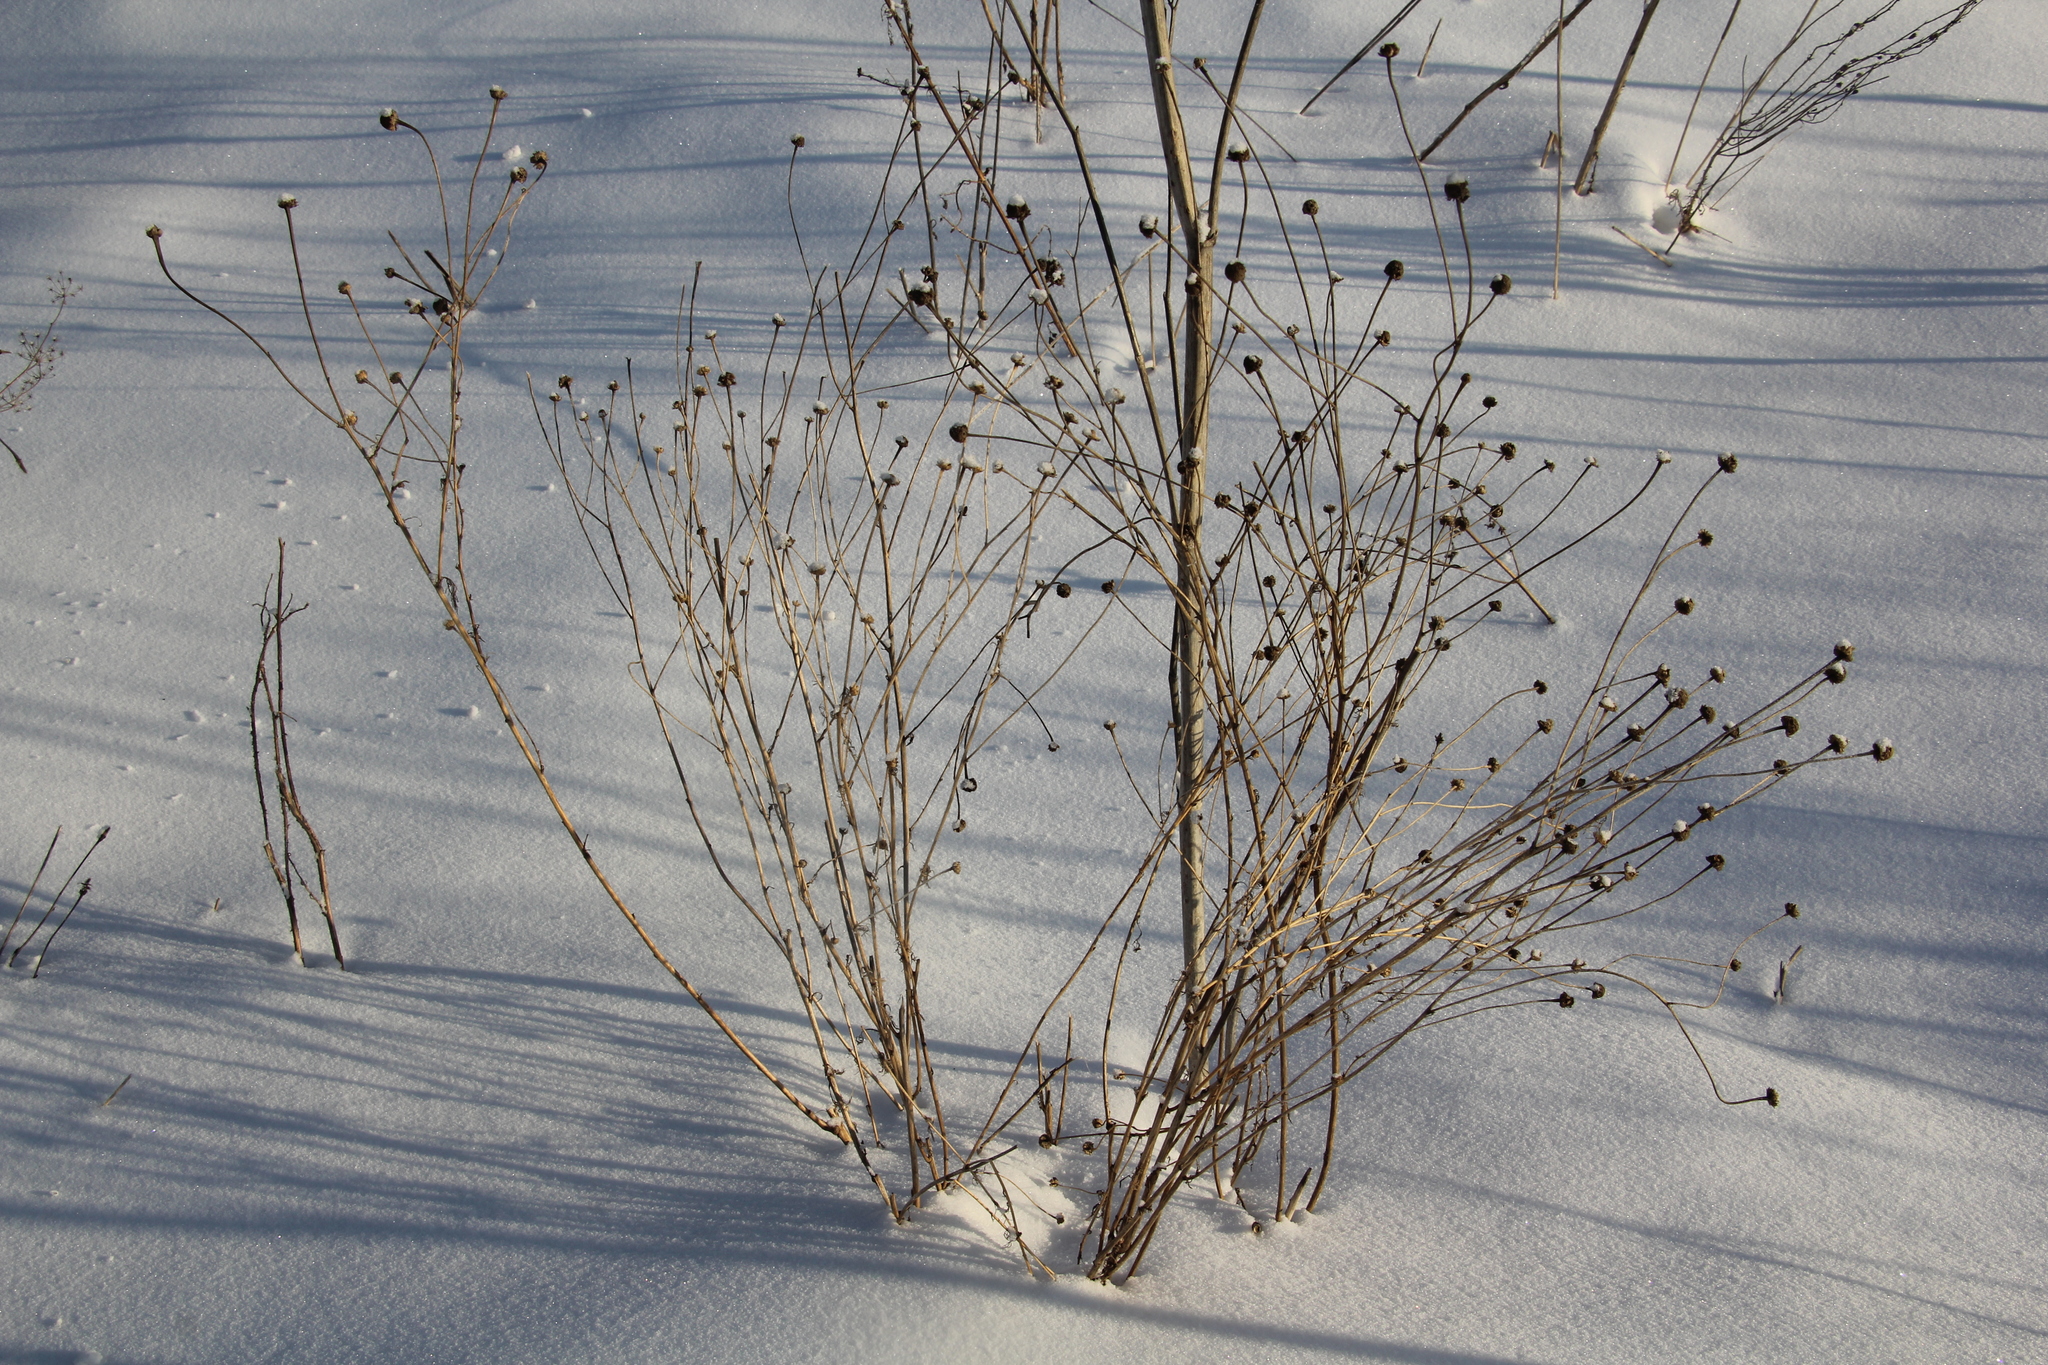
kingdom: Plantae
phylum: Tracheophyta
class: Magnoliopsida
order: Asterales
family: Asteraceae
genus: Tripleurospermum
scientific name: Tripleurospermum inodorum
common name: Scentless mayweed
